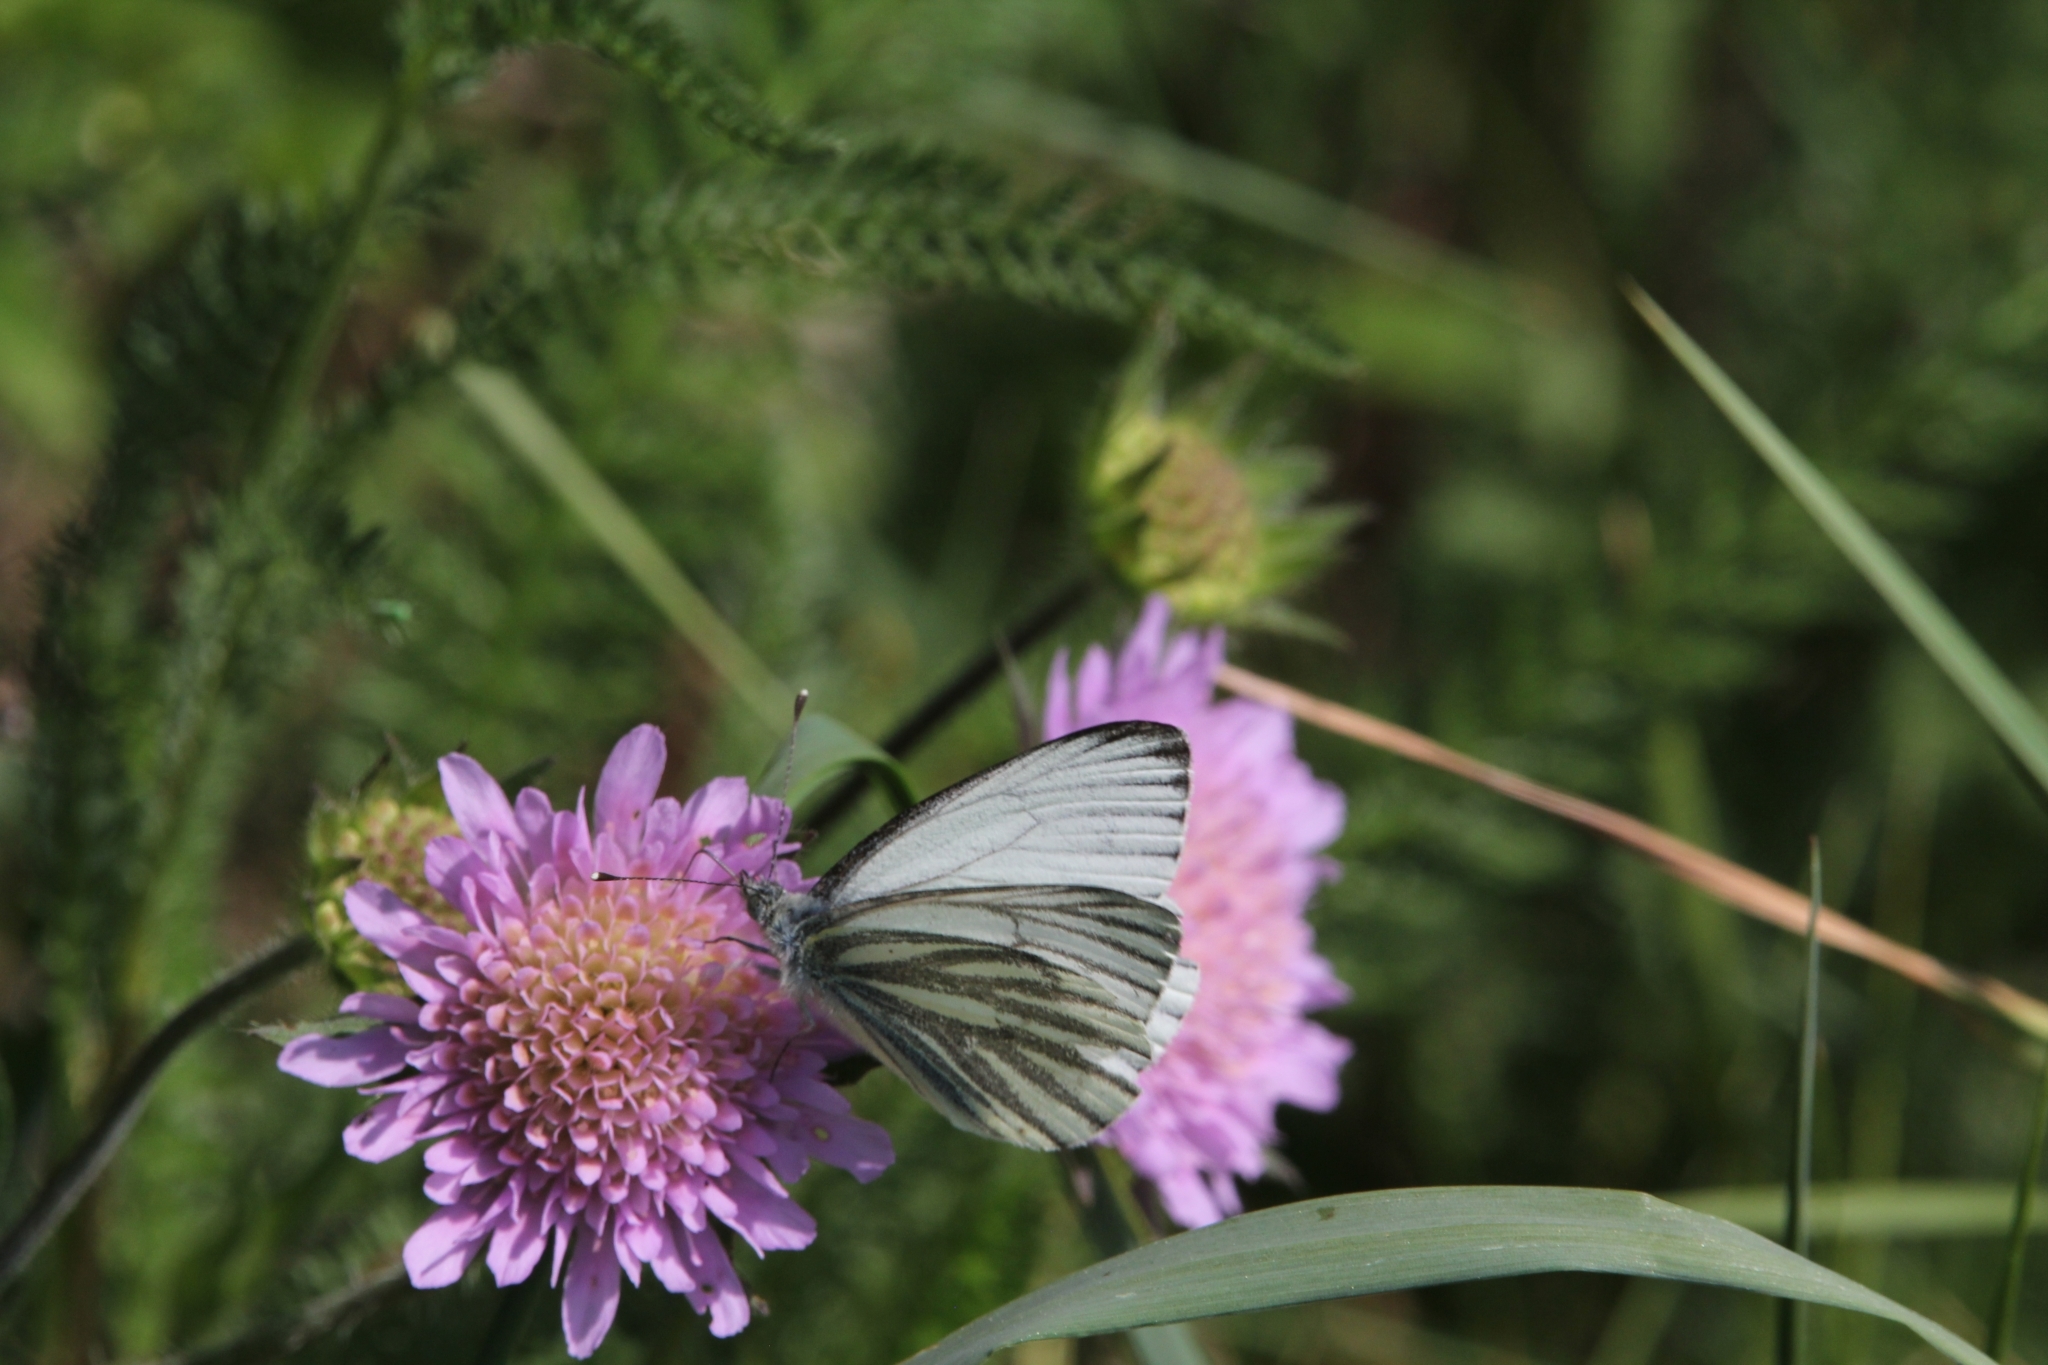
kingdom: Animalia
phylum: Arthropoda
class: Insecta
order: Lepidoptera
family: Pieridae
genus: Pieris
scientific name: Pieris napi
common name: Green-veined white
